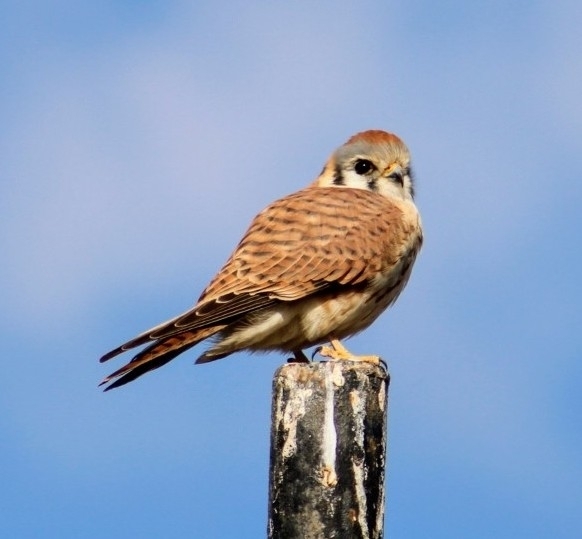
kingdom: Animalia
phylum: Chordata
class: Aves
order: Falconiformes
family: Falconidae
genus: Falco
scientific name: Falco sparverius
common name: American kestrel
